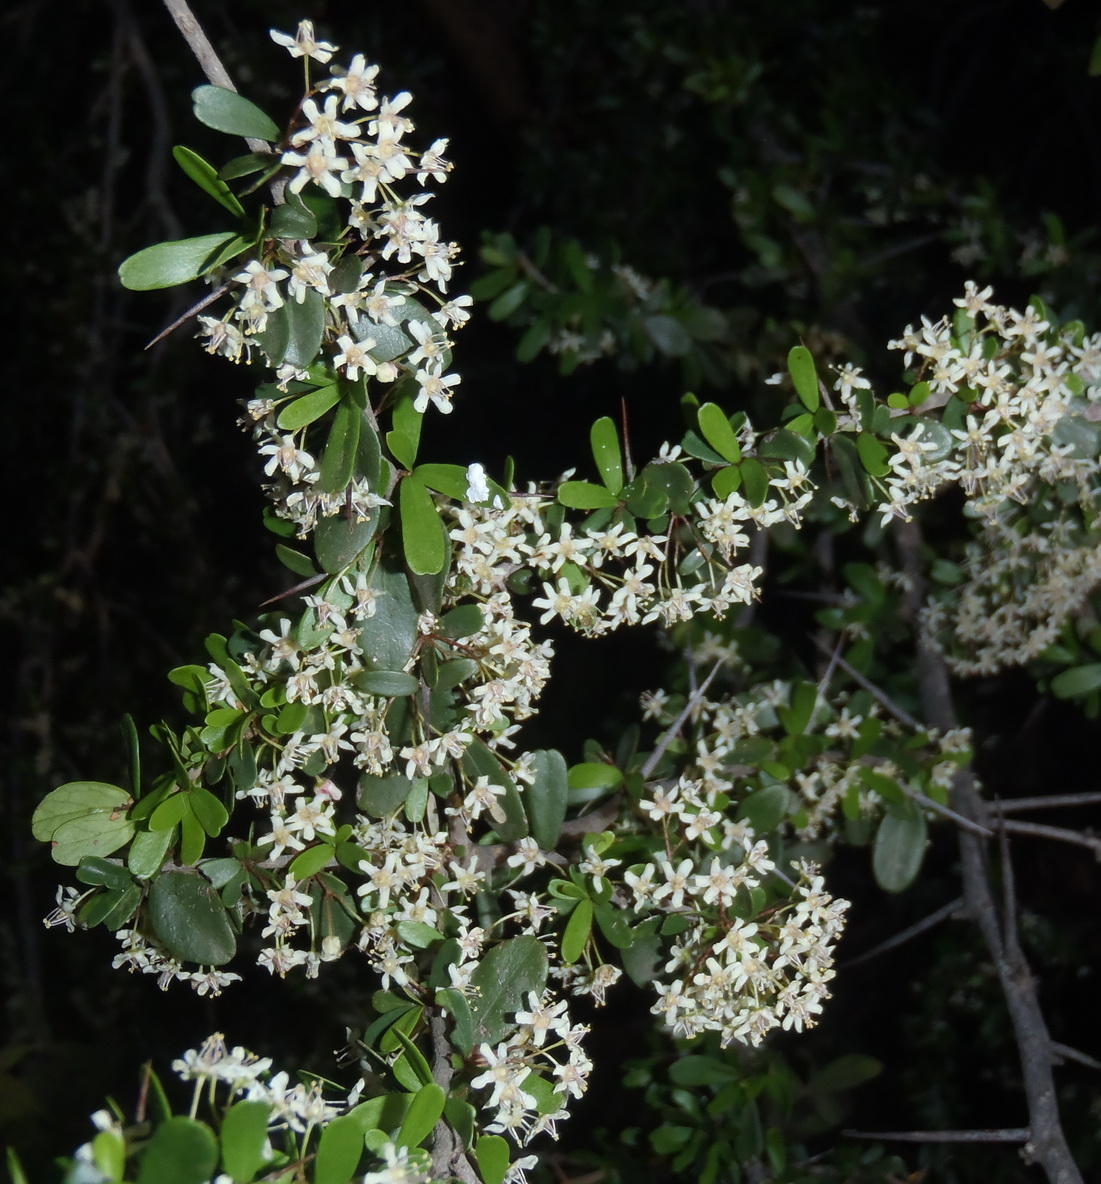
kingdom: Plantae
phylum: Tracheophyta
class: Magnoliopsida
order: Celastrales
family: Celastraceae
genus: Gymnosporia
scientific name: Gymnosporia polyacantha
